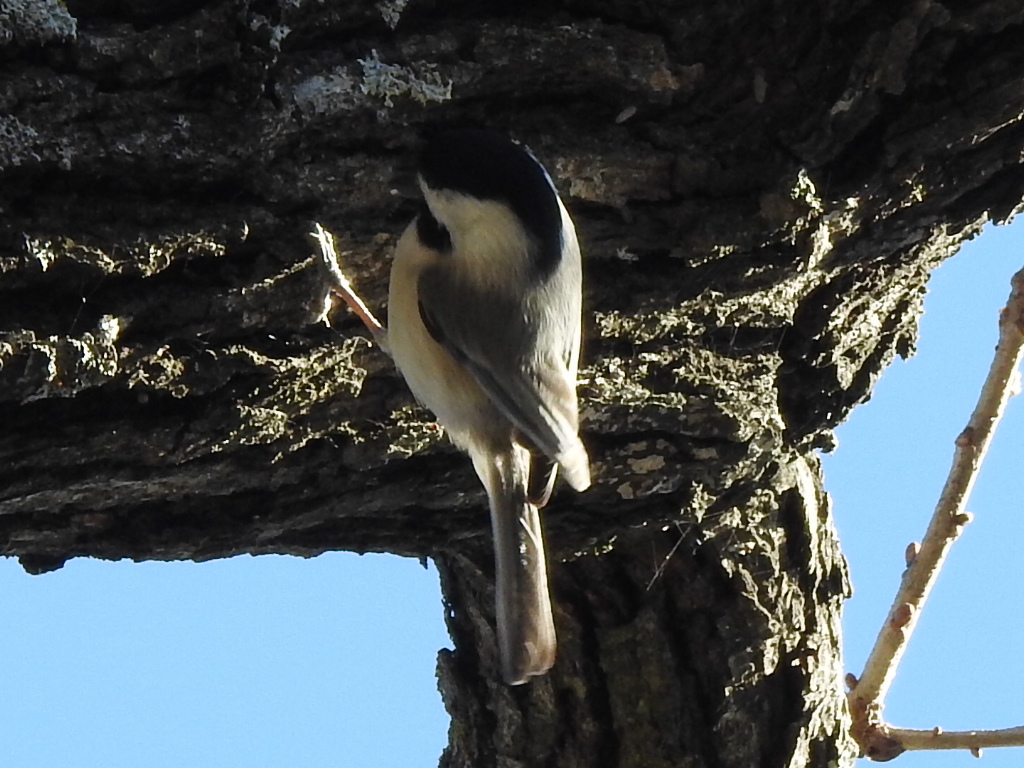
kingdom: Animalia
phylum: Chordata
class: Aves
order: Passeriformes
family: Paridae
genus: Poecile
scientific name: Poecile carolinensis
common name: Carolina chickadee
